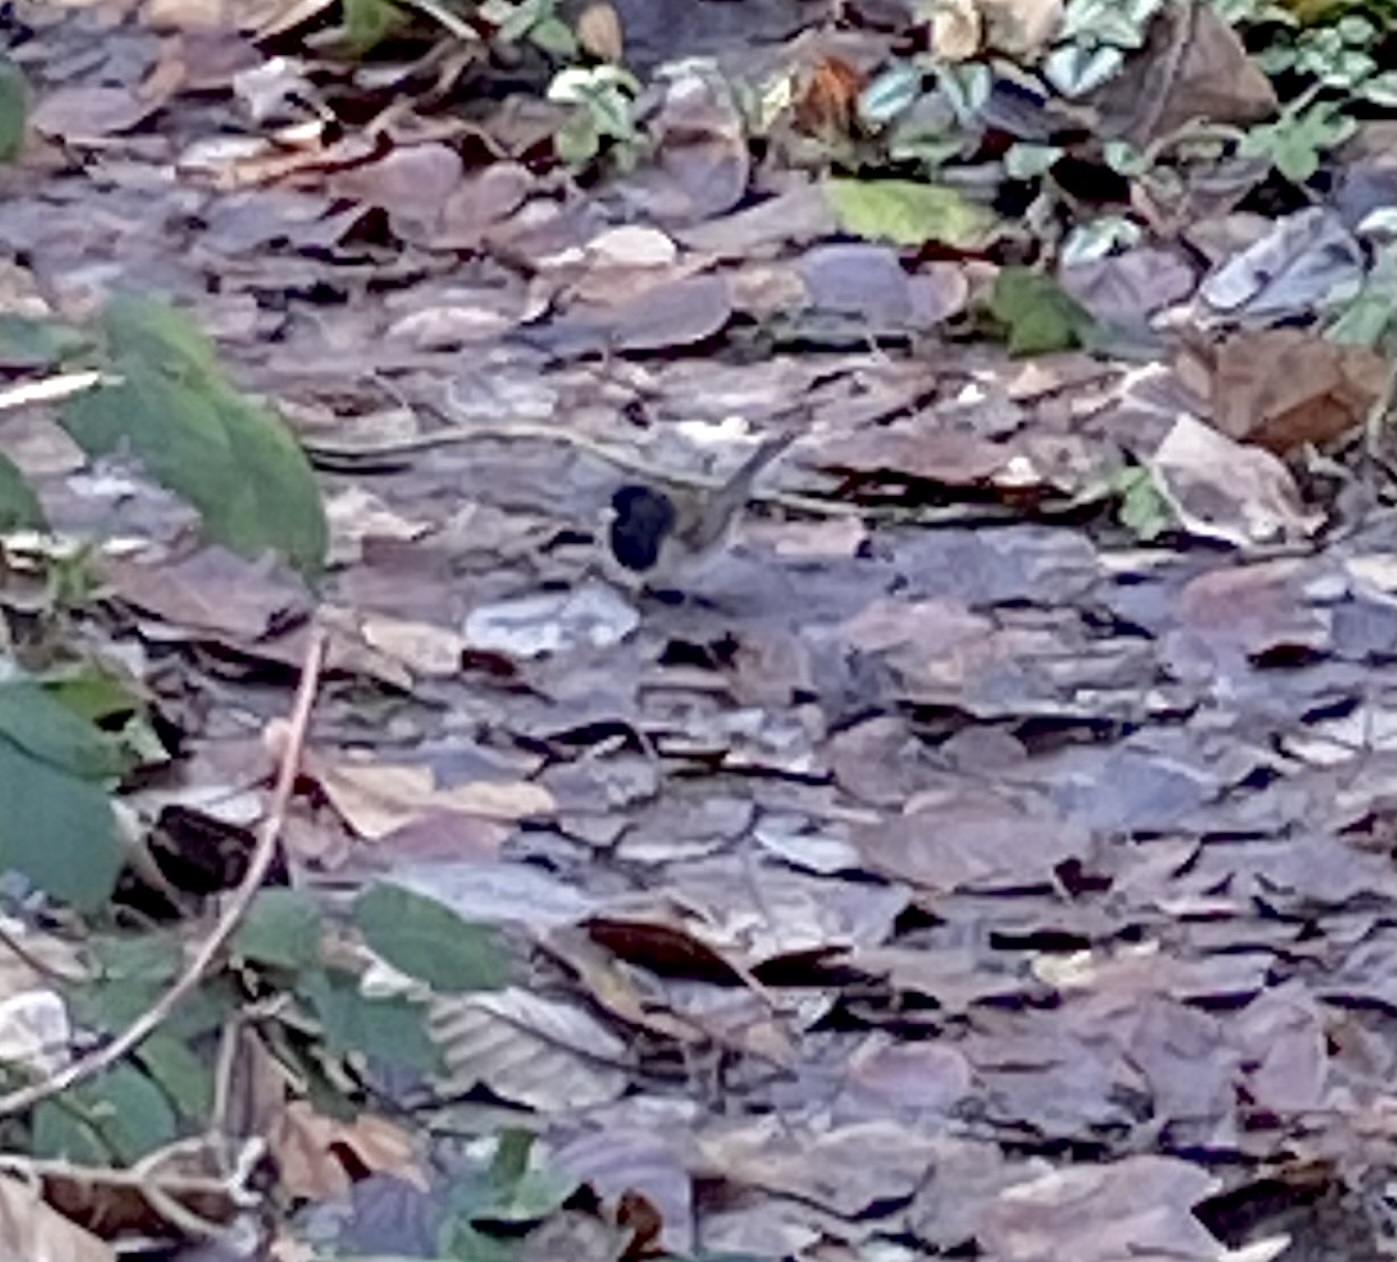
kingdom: Animalia
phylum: Chordata
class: Aves
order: Passeriformes
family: Passerellidae
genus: Junco
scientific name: Junco hyemalis
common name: Dark-eyed junco
